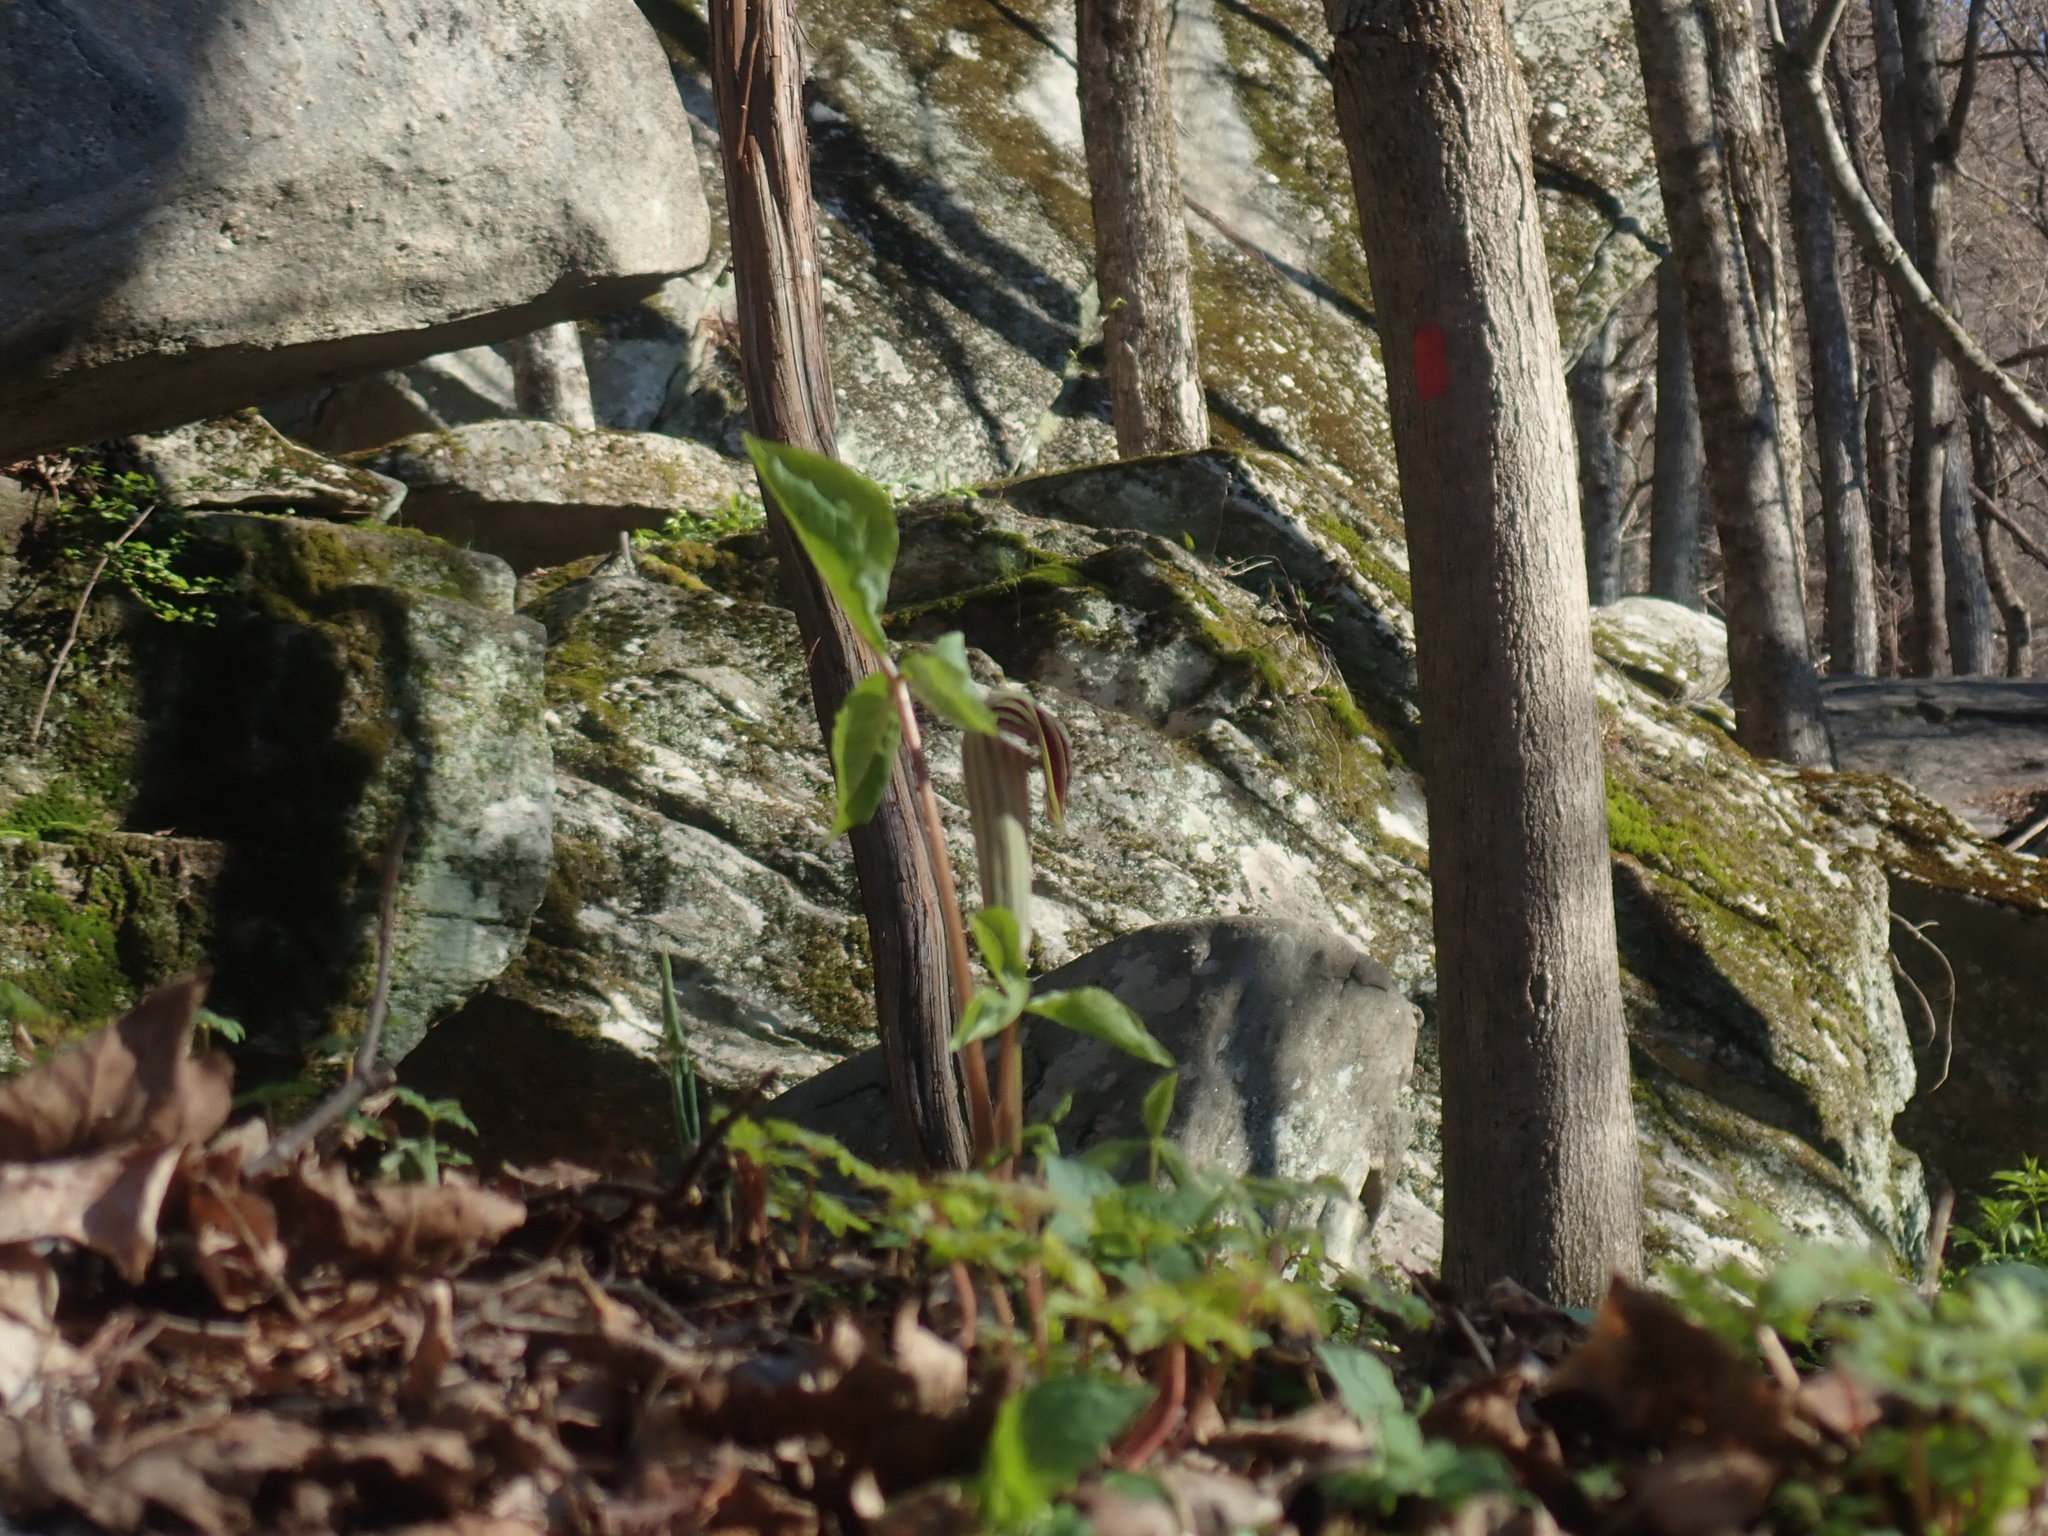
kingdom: Plantae
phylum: Tracheophyta
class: Liliopsida
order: Alismatales
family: Araceae
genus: Arisaema
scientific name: Arisaema triphyllum
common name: Jack-in-the-pulpit
